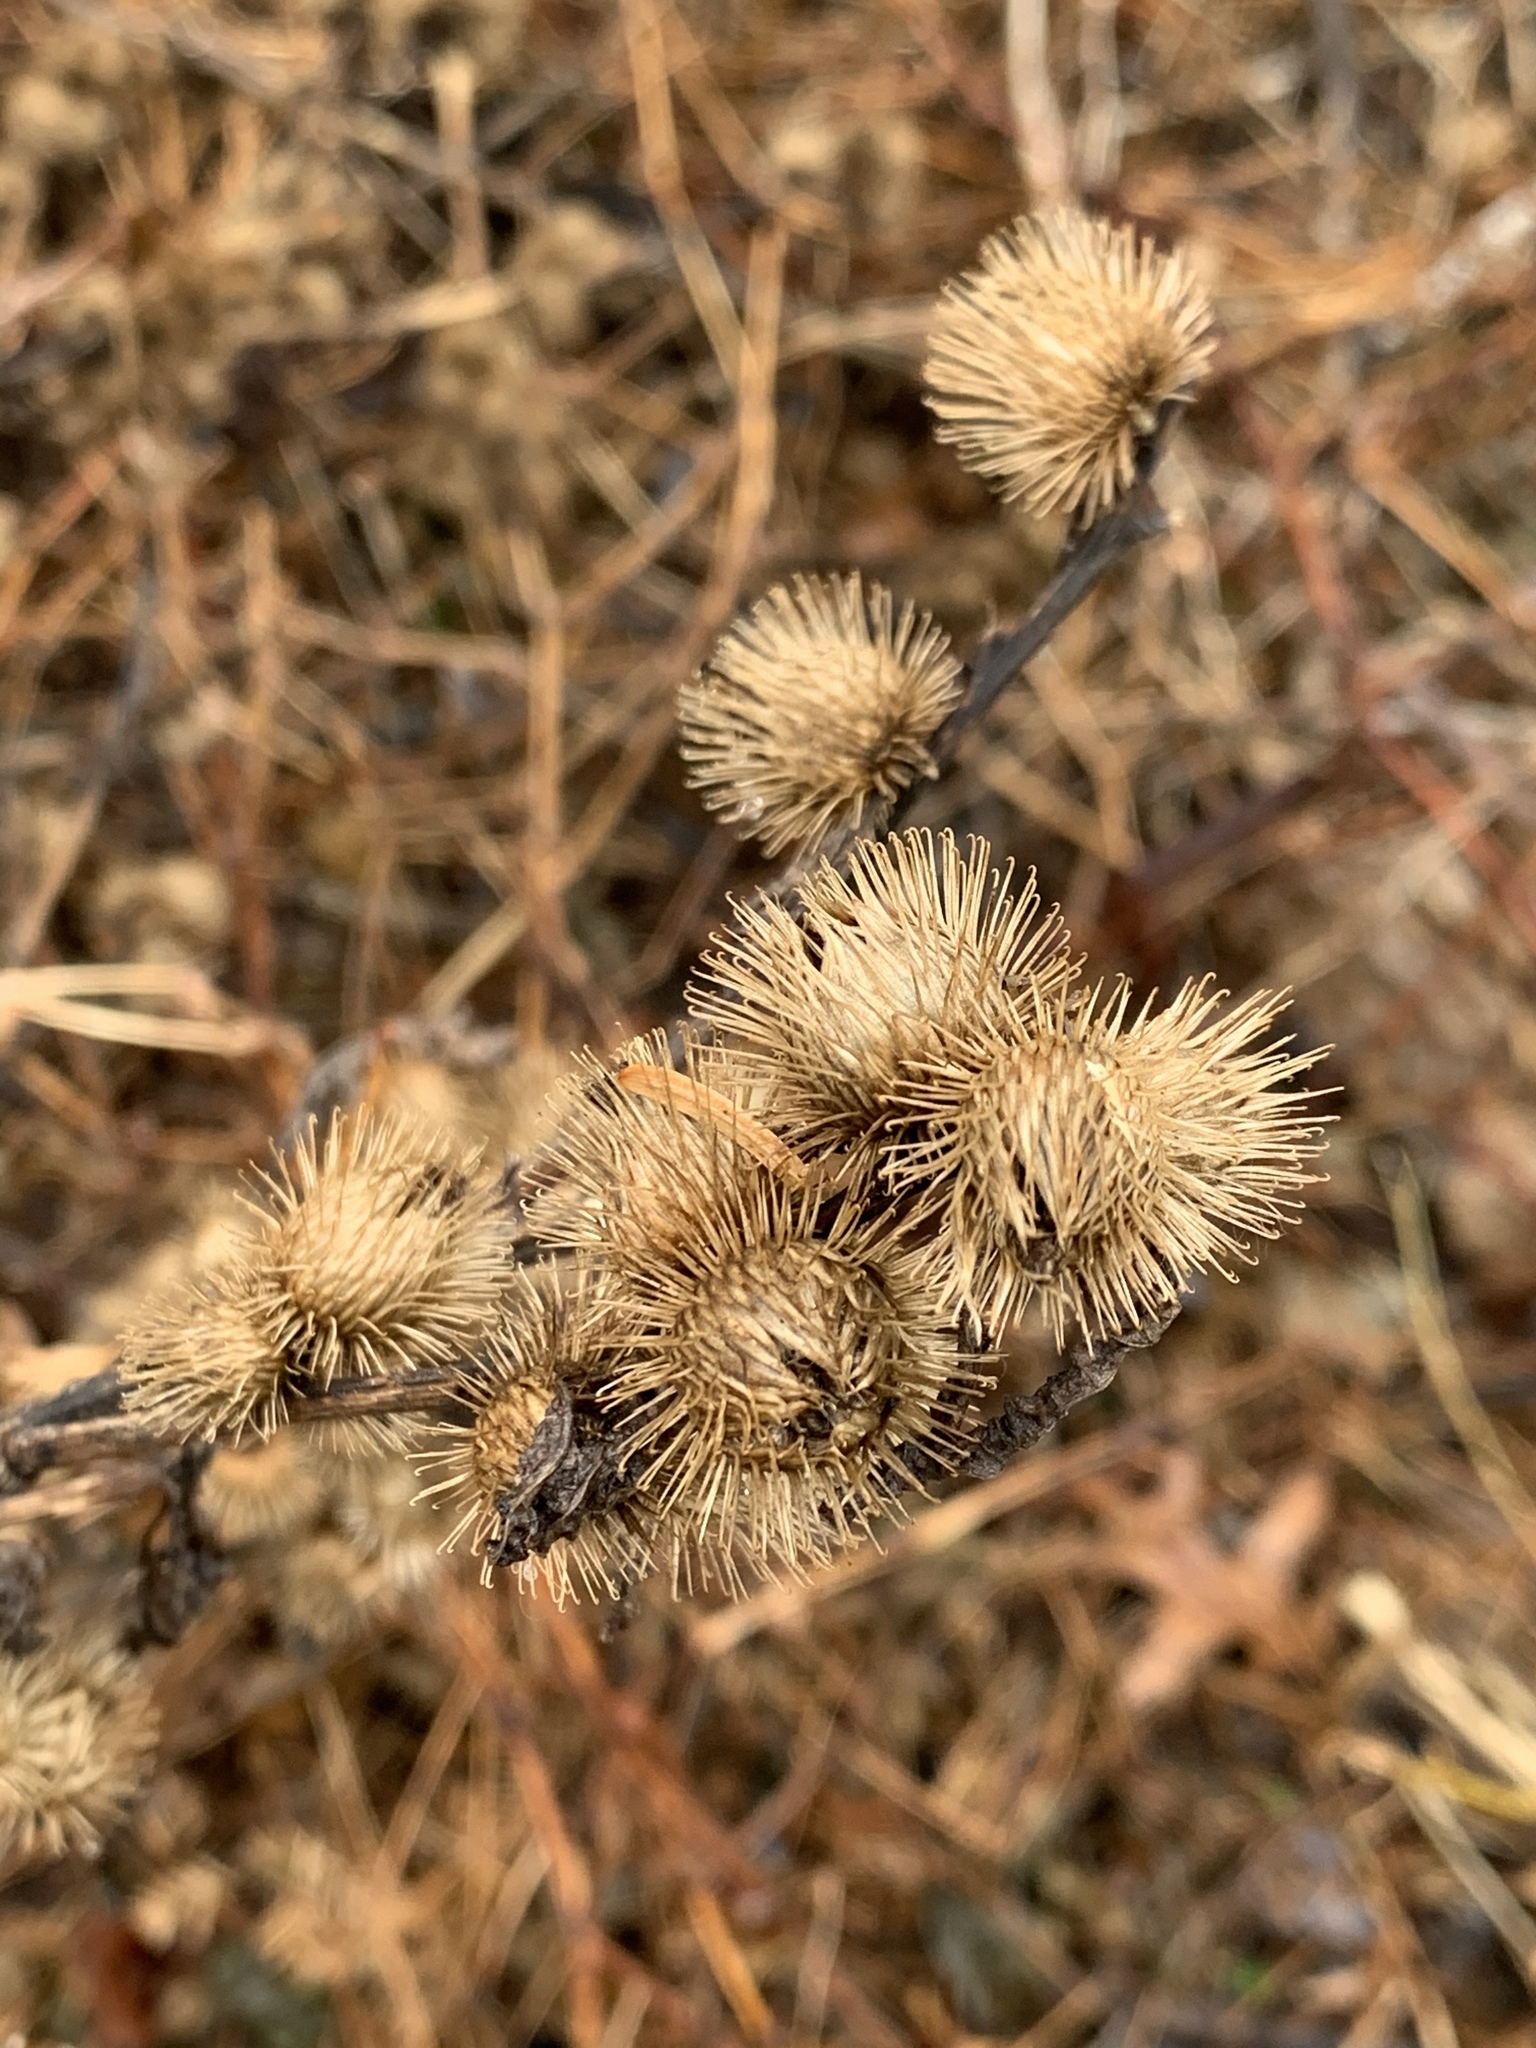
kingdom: Plantae
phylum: Tracheophyta
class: Magnoliopsida
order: Asterales
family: Asteraceae
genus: Arctium
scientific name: Arctium minus
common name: Lesser burdock
